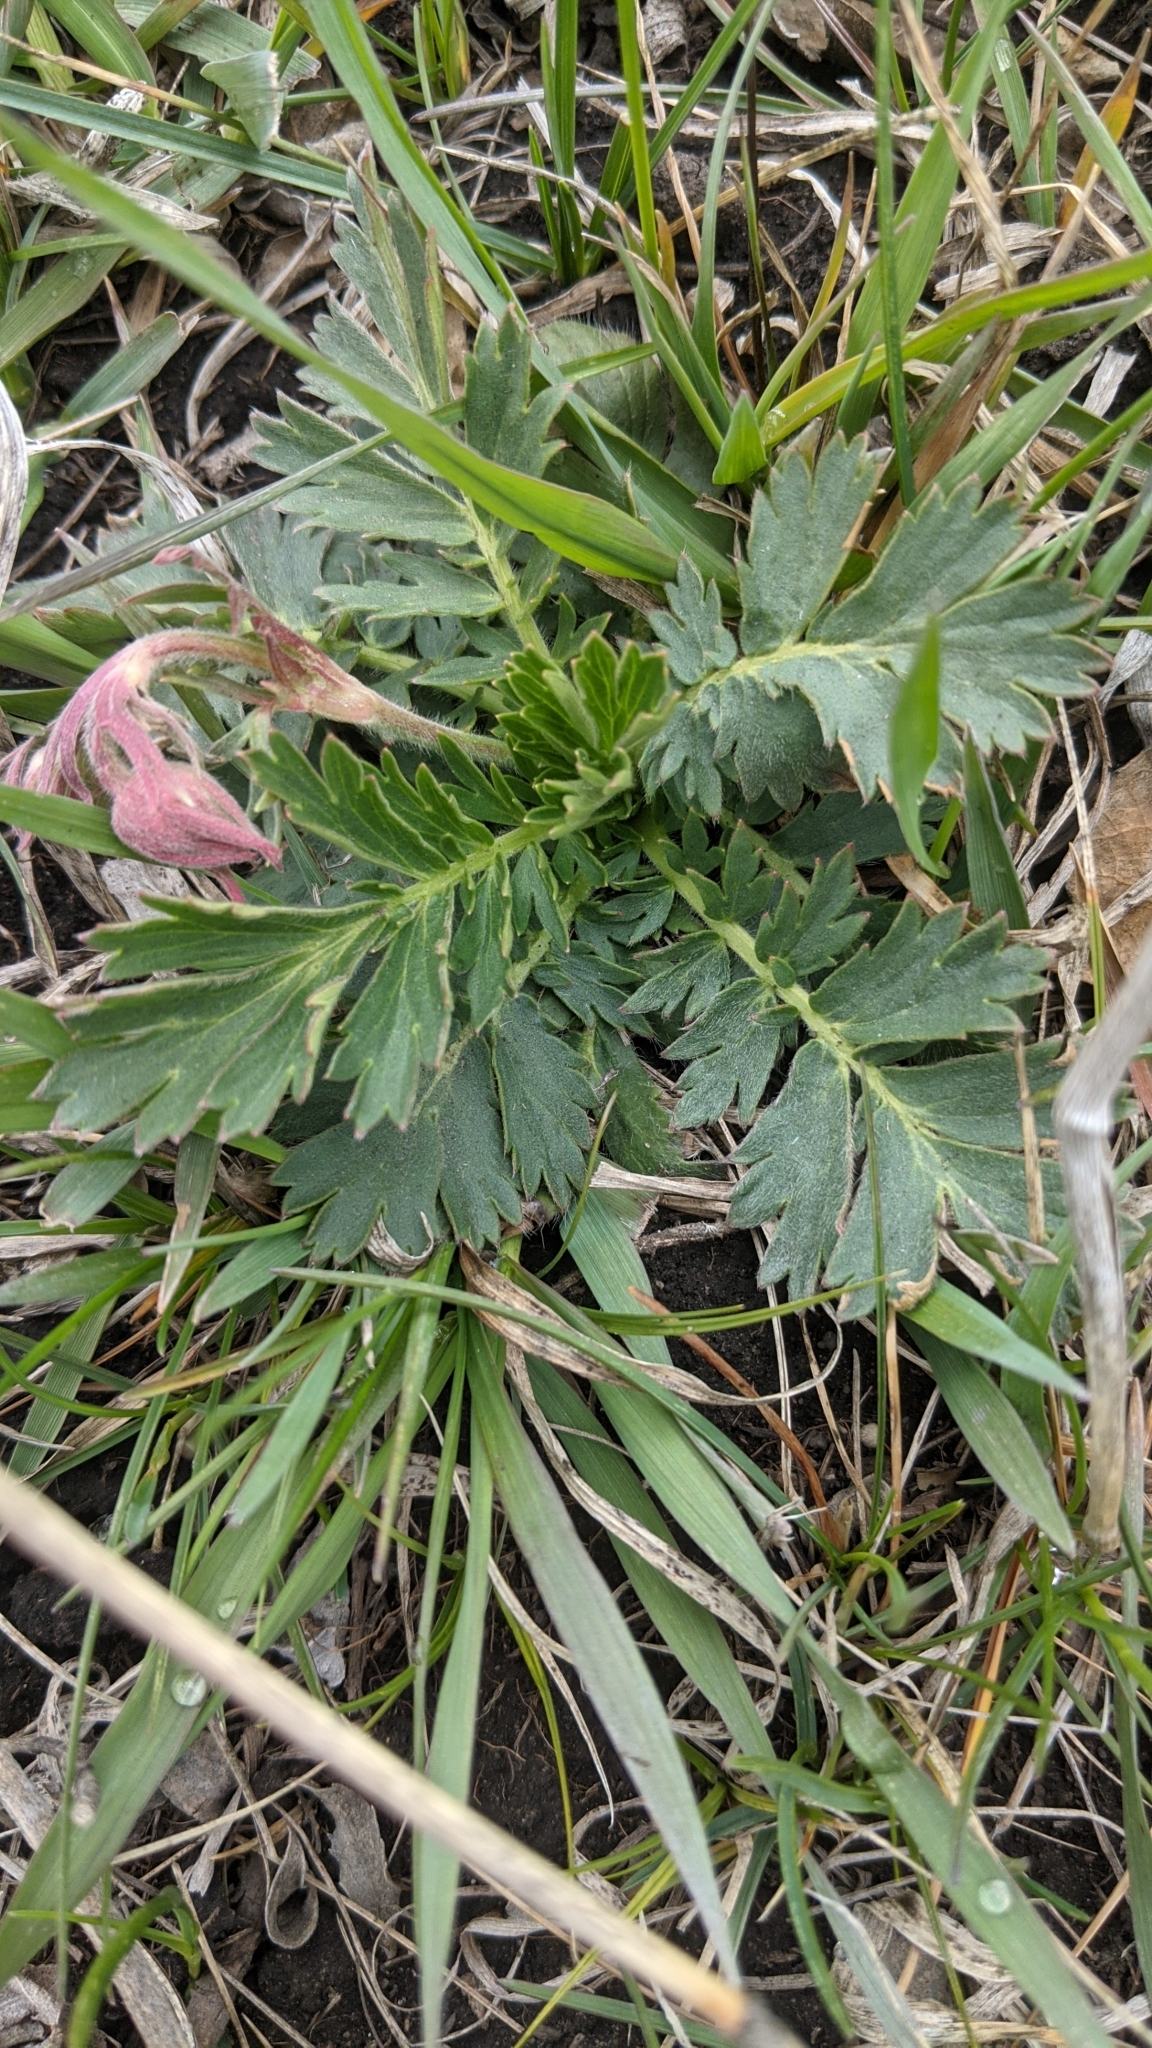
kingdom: Plantae
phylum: Tracheophyta
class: Magnoliopsida
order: Rosales
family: Rosaceae
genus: Geum
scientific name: Geum triflorum
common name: Old man's whiskers
